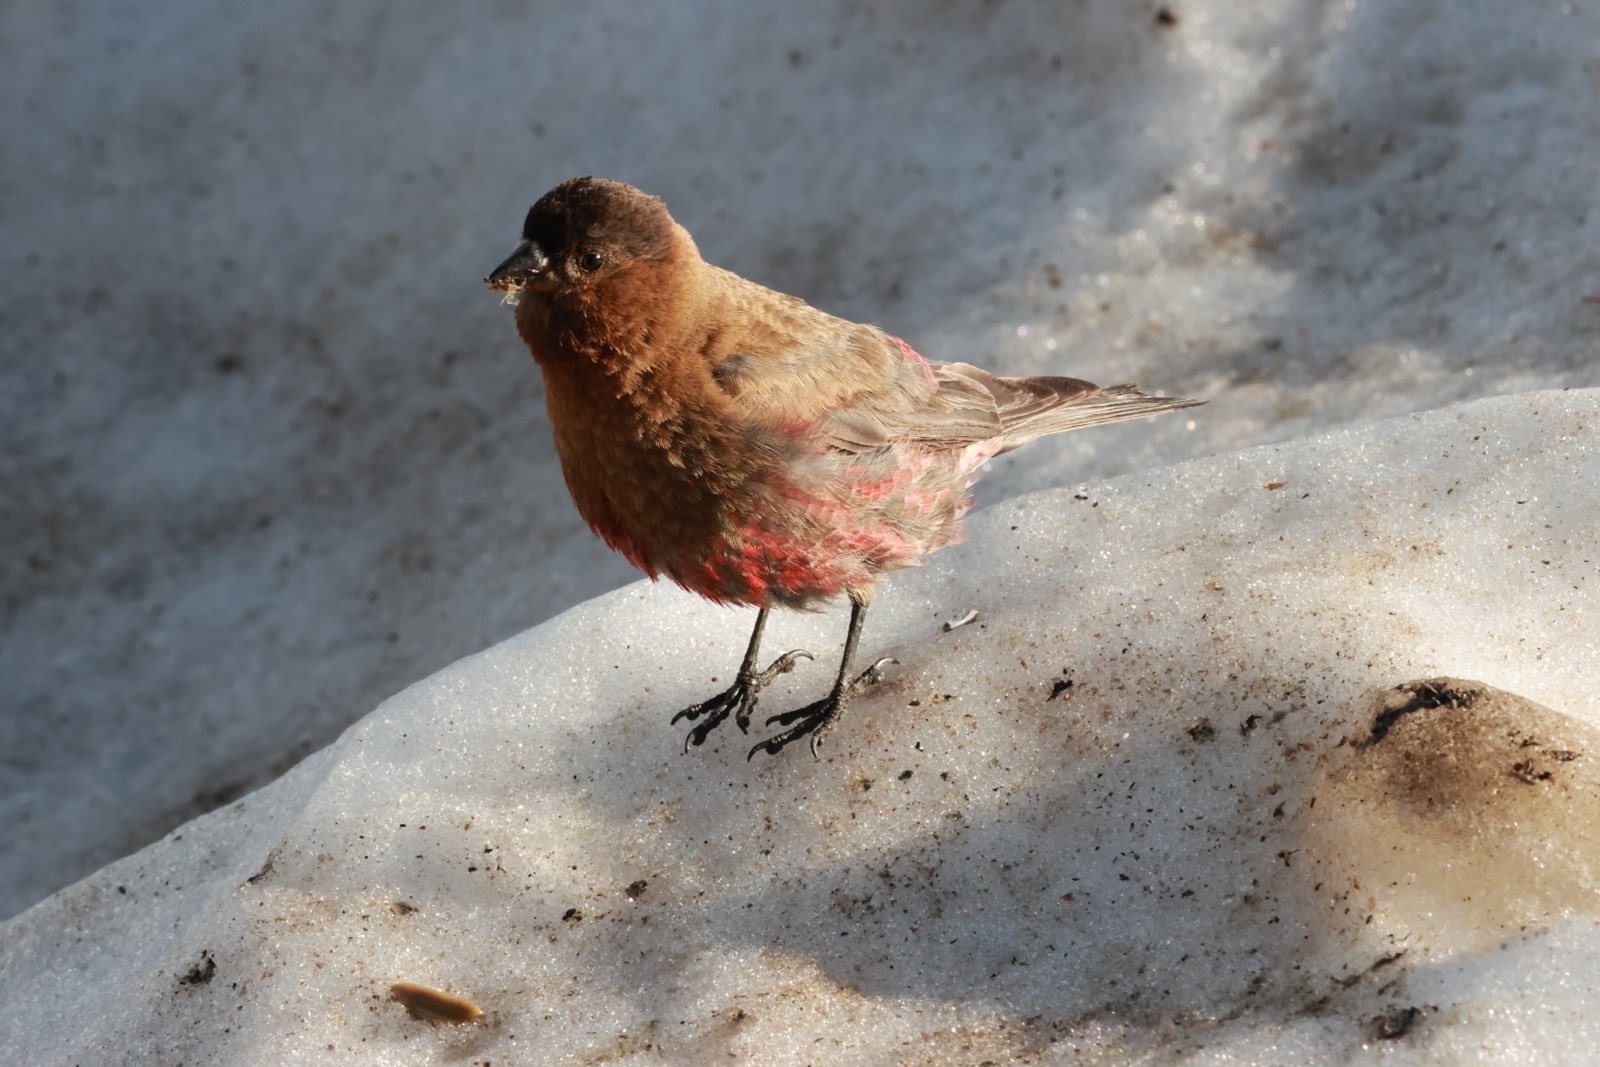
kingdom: Animalia
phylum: Chordata
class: Aves
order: Passeriformes
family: Fringillidae
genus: Leucosticte
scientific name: Leucosticte australis
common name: Brown-capped rosy-finch
